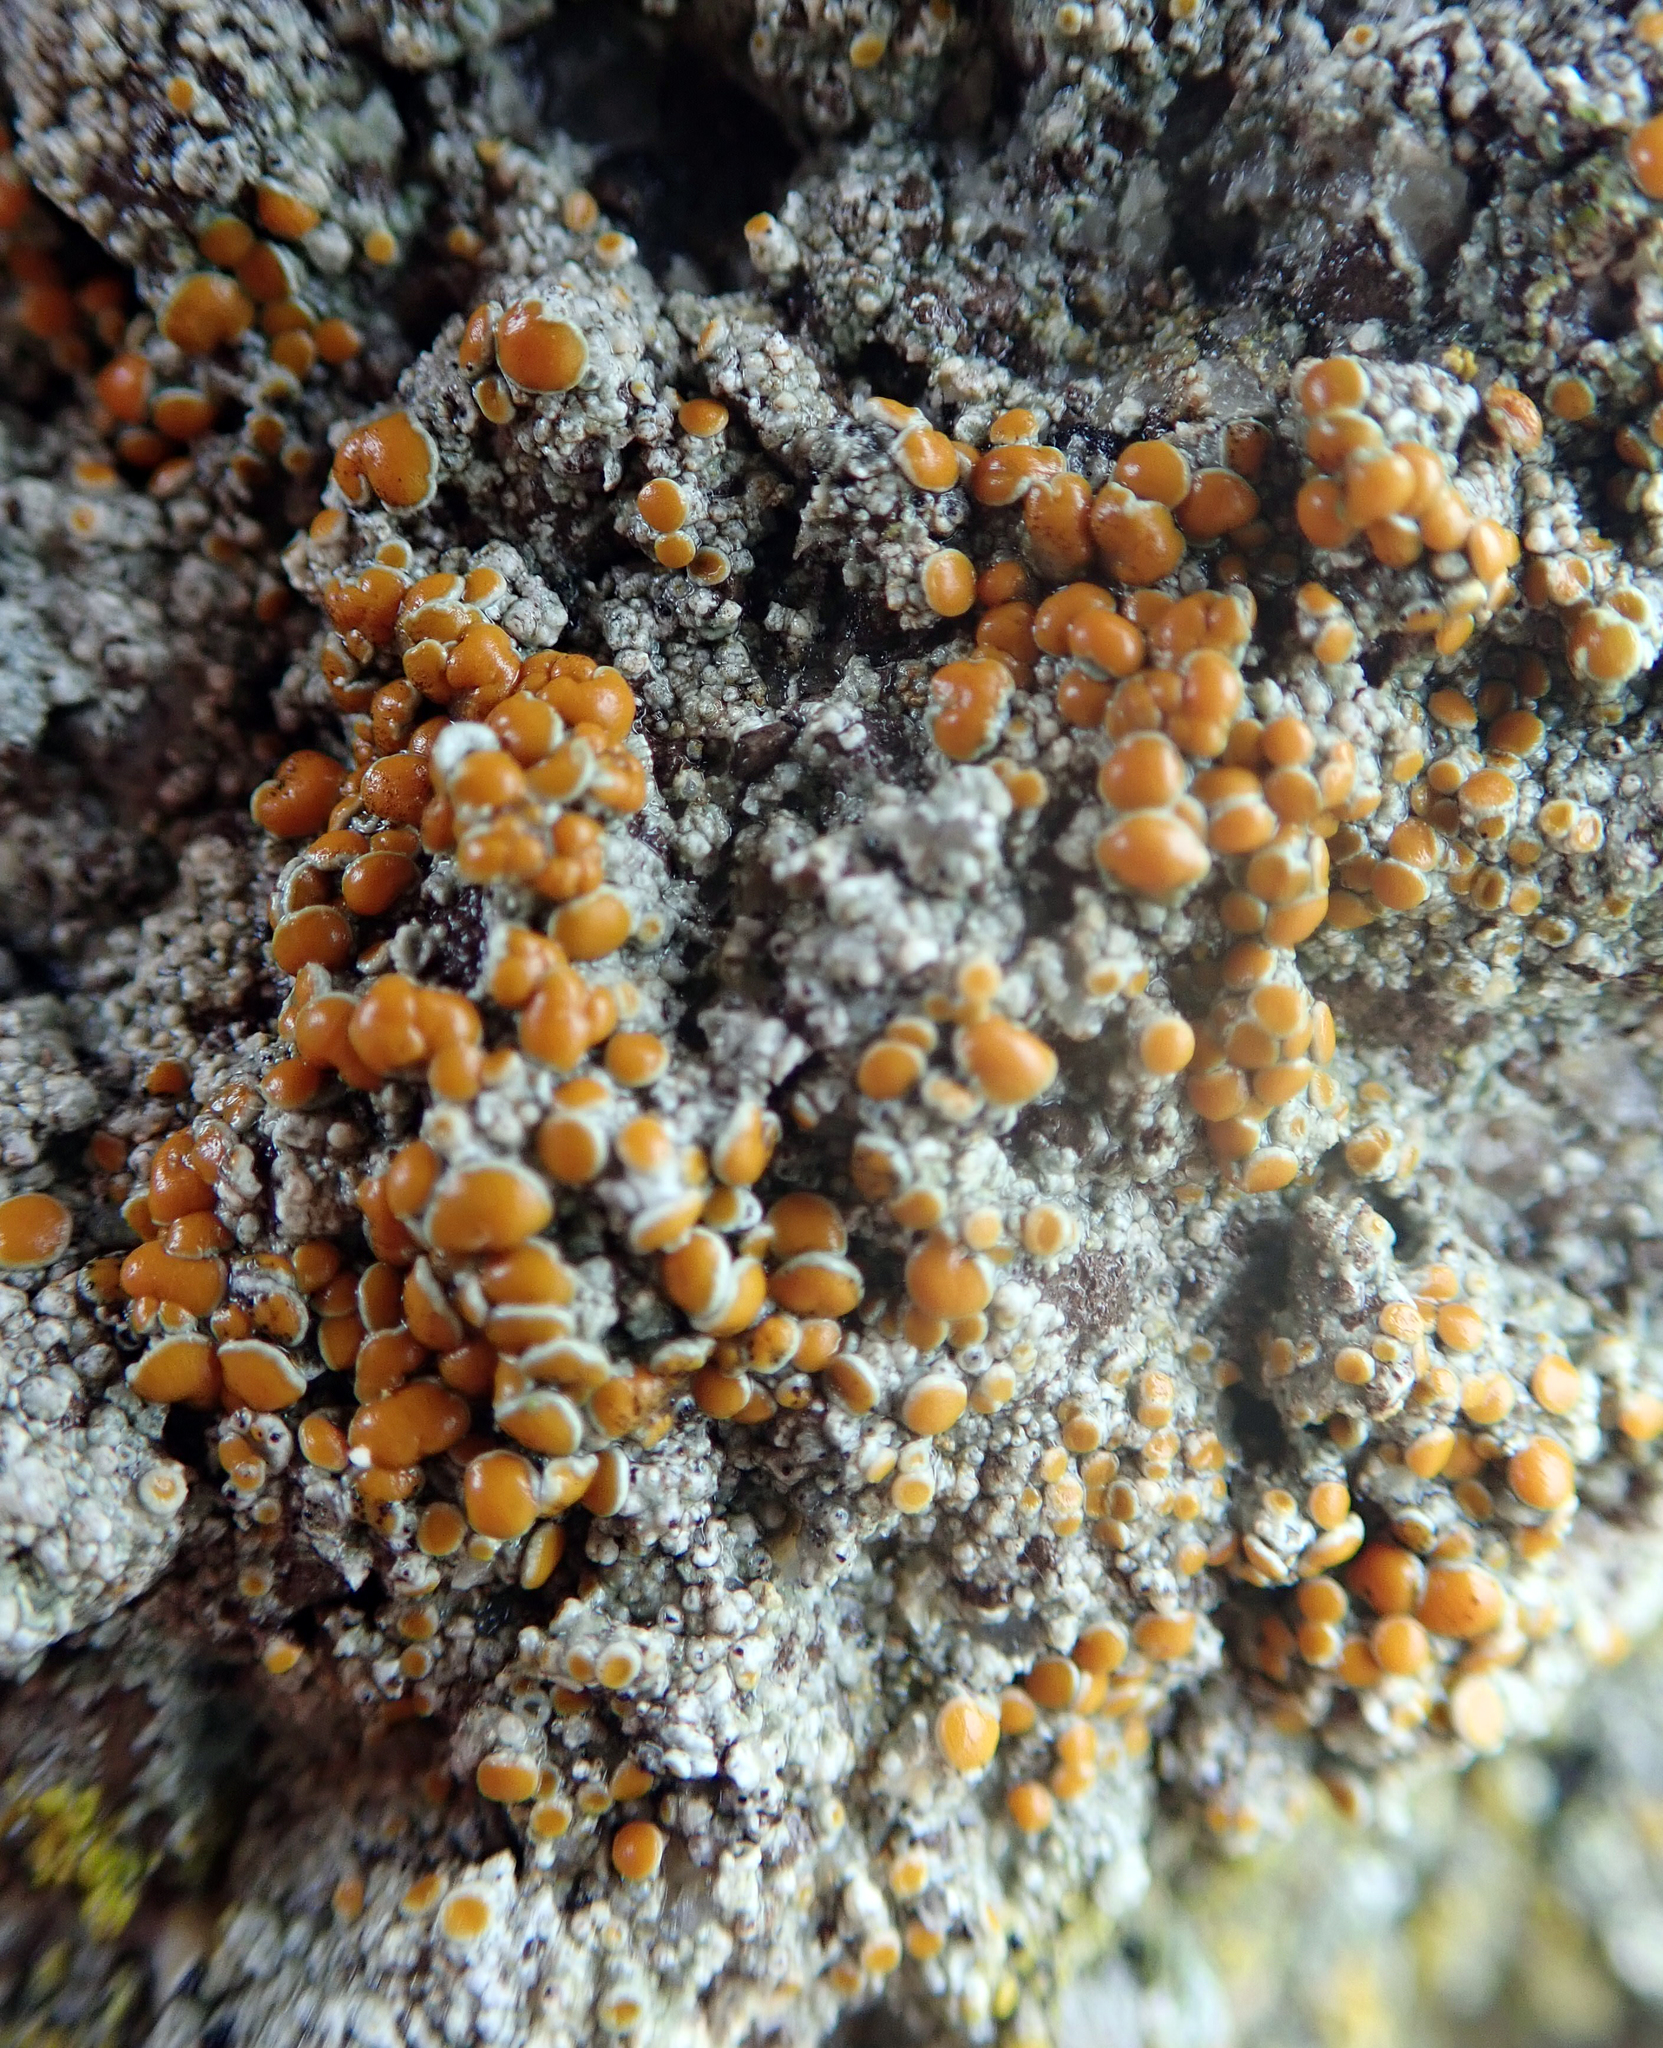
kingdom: Fungi
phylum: Ascomycota
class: Lecanoromycetes
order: Teloschistales
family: Teloschistaceae
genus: Caloplaca
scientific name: Caloplaca maculata
